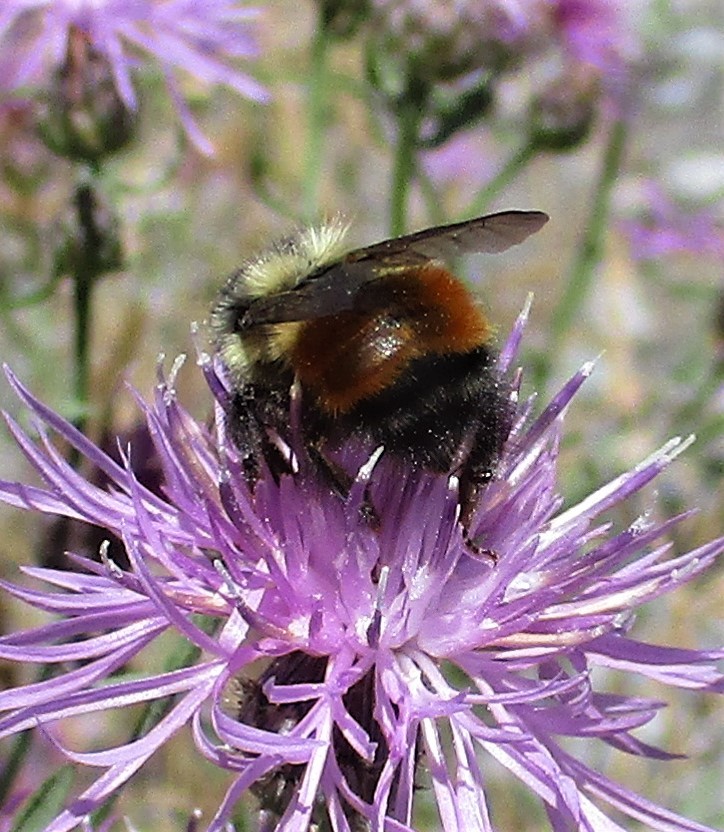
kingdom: Animalia
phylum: Arthropoda
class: Insecta
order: Hymenoptera
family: Apidae
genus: Bombus
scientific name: Bombus melanopygus
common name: Black tail bumble bee
